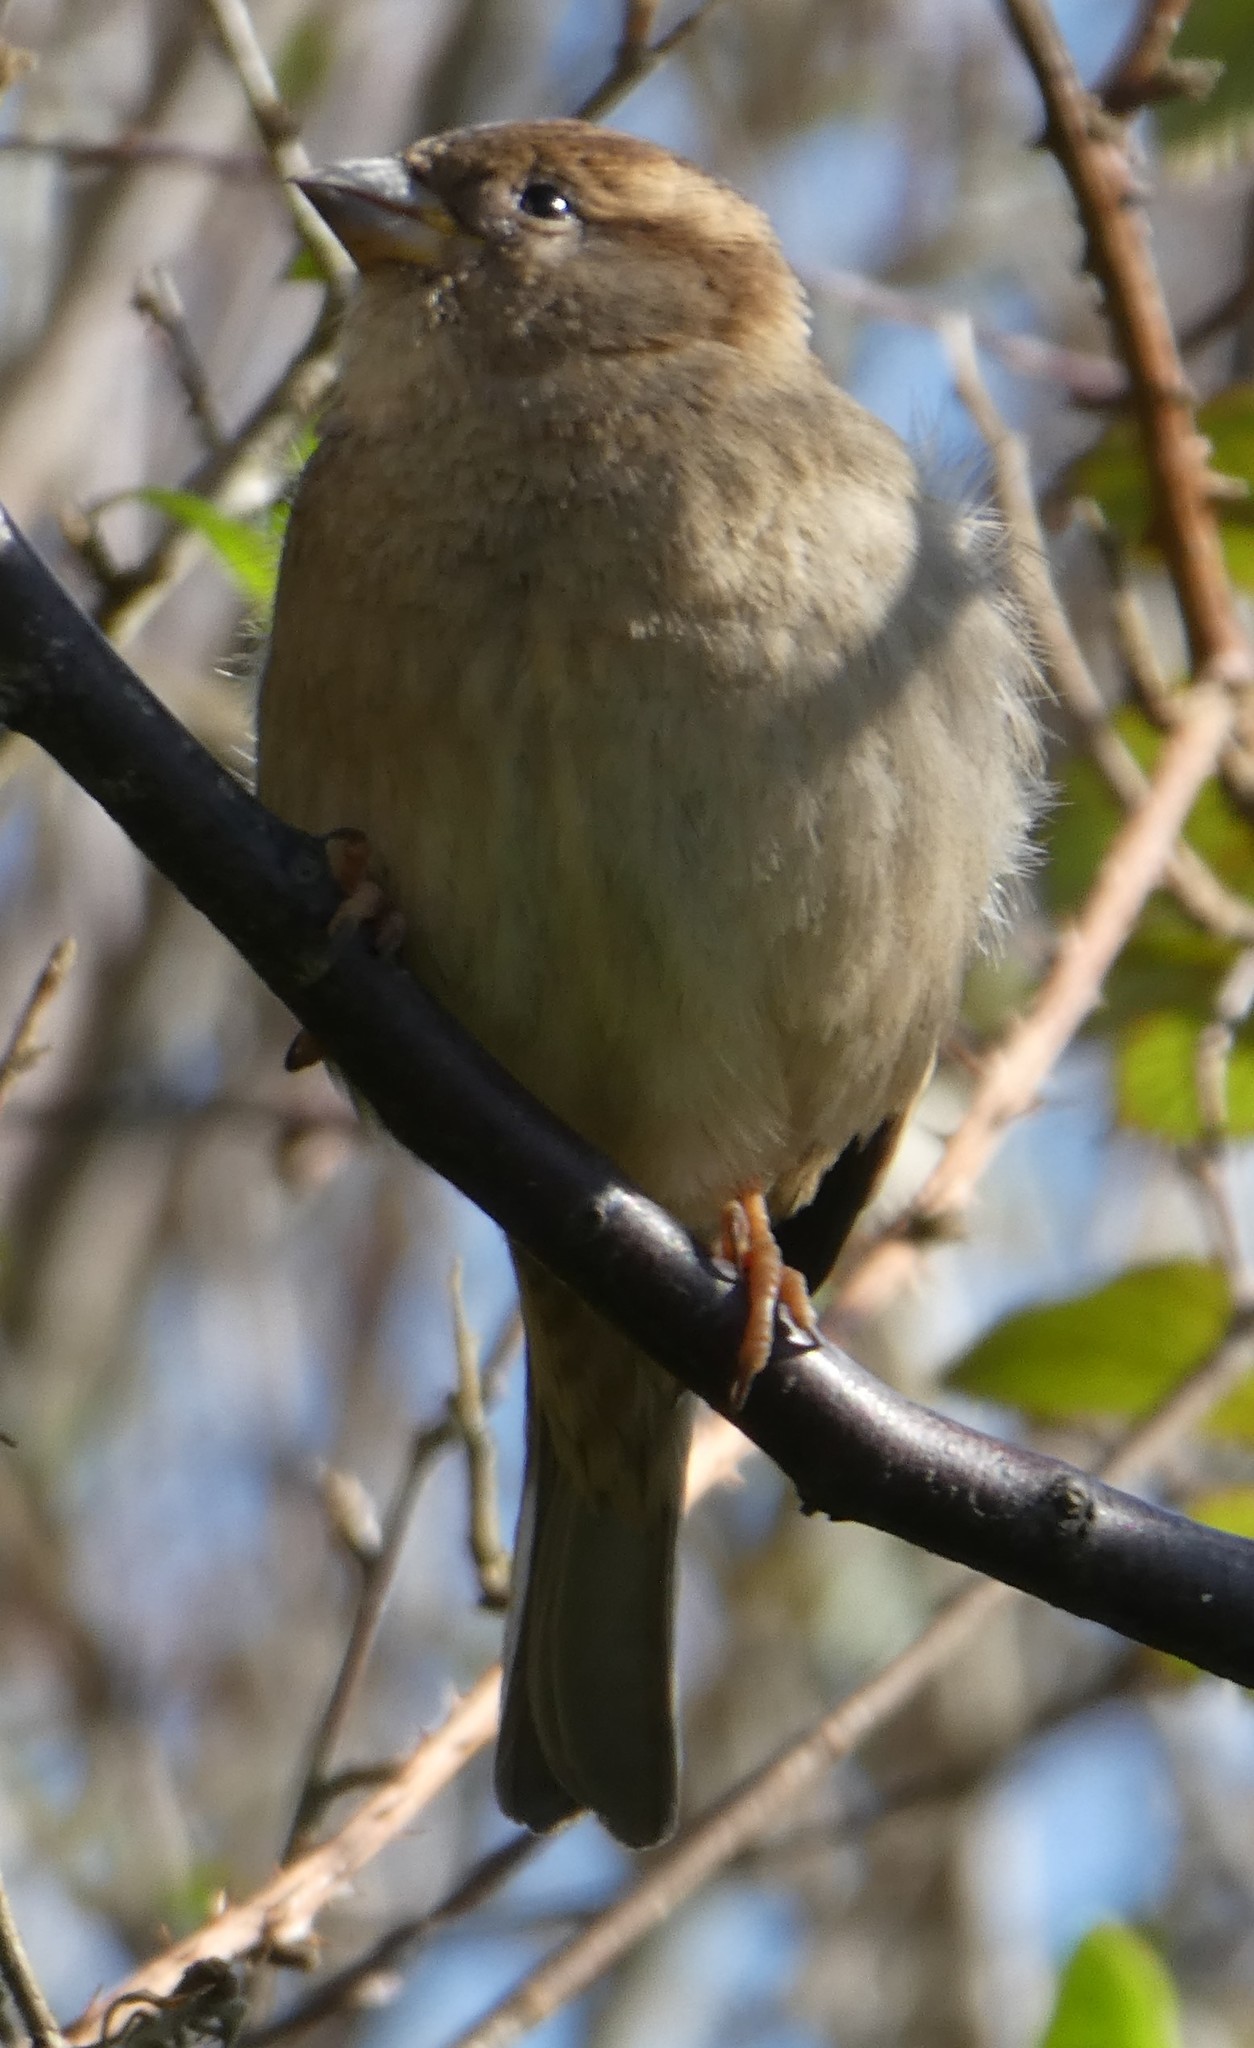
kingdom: Animalia
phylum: Chordata
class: Aves
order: Passeriformes
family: Passeridae
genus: Passer
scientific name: Passer domesticus
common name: House sparrow
